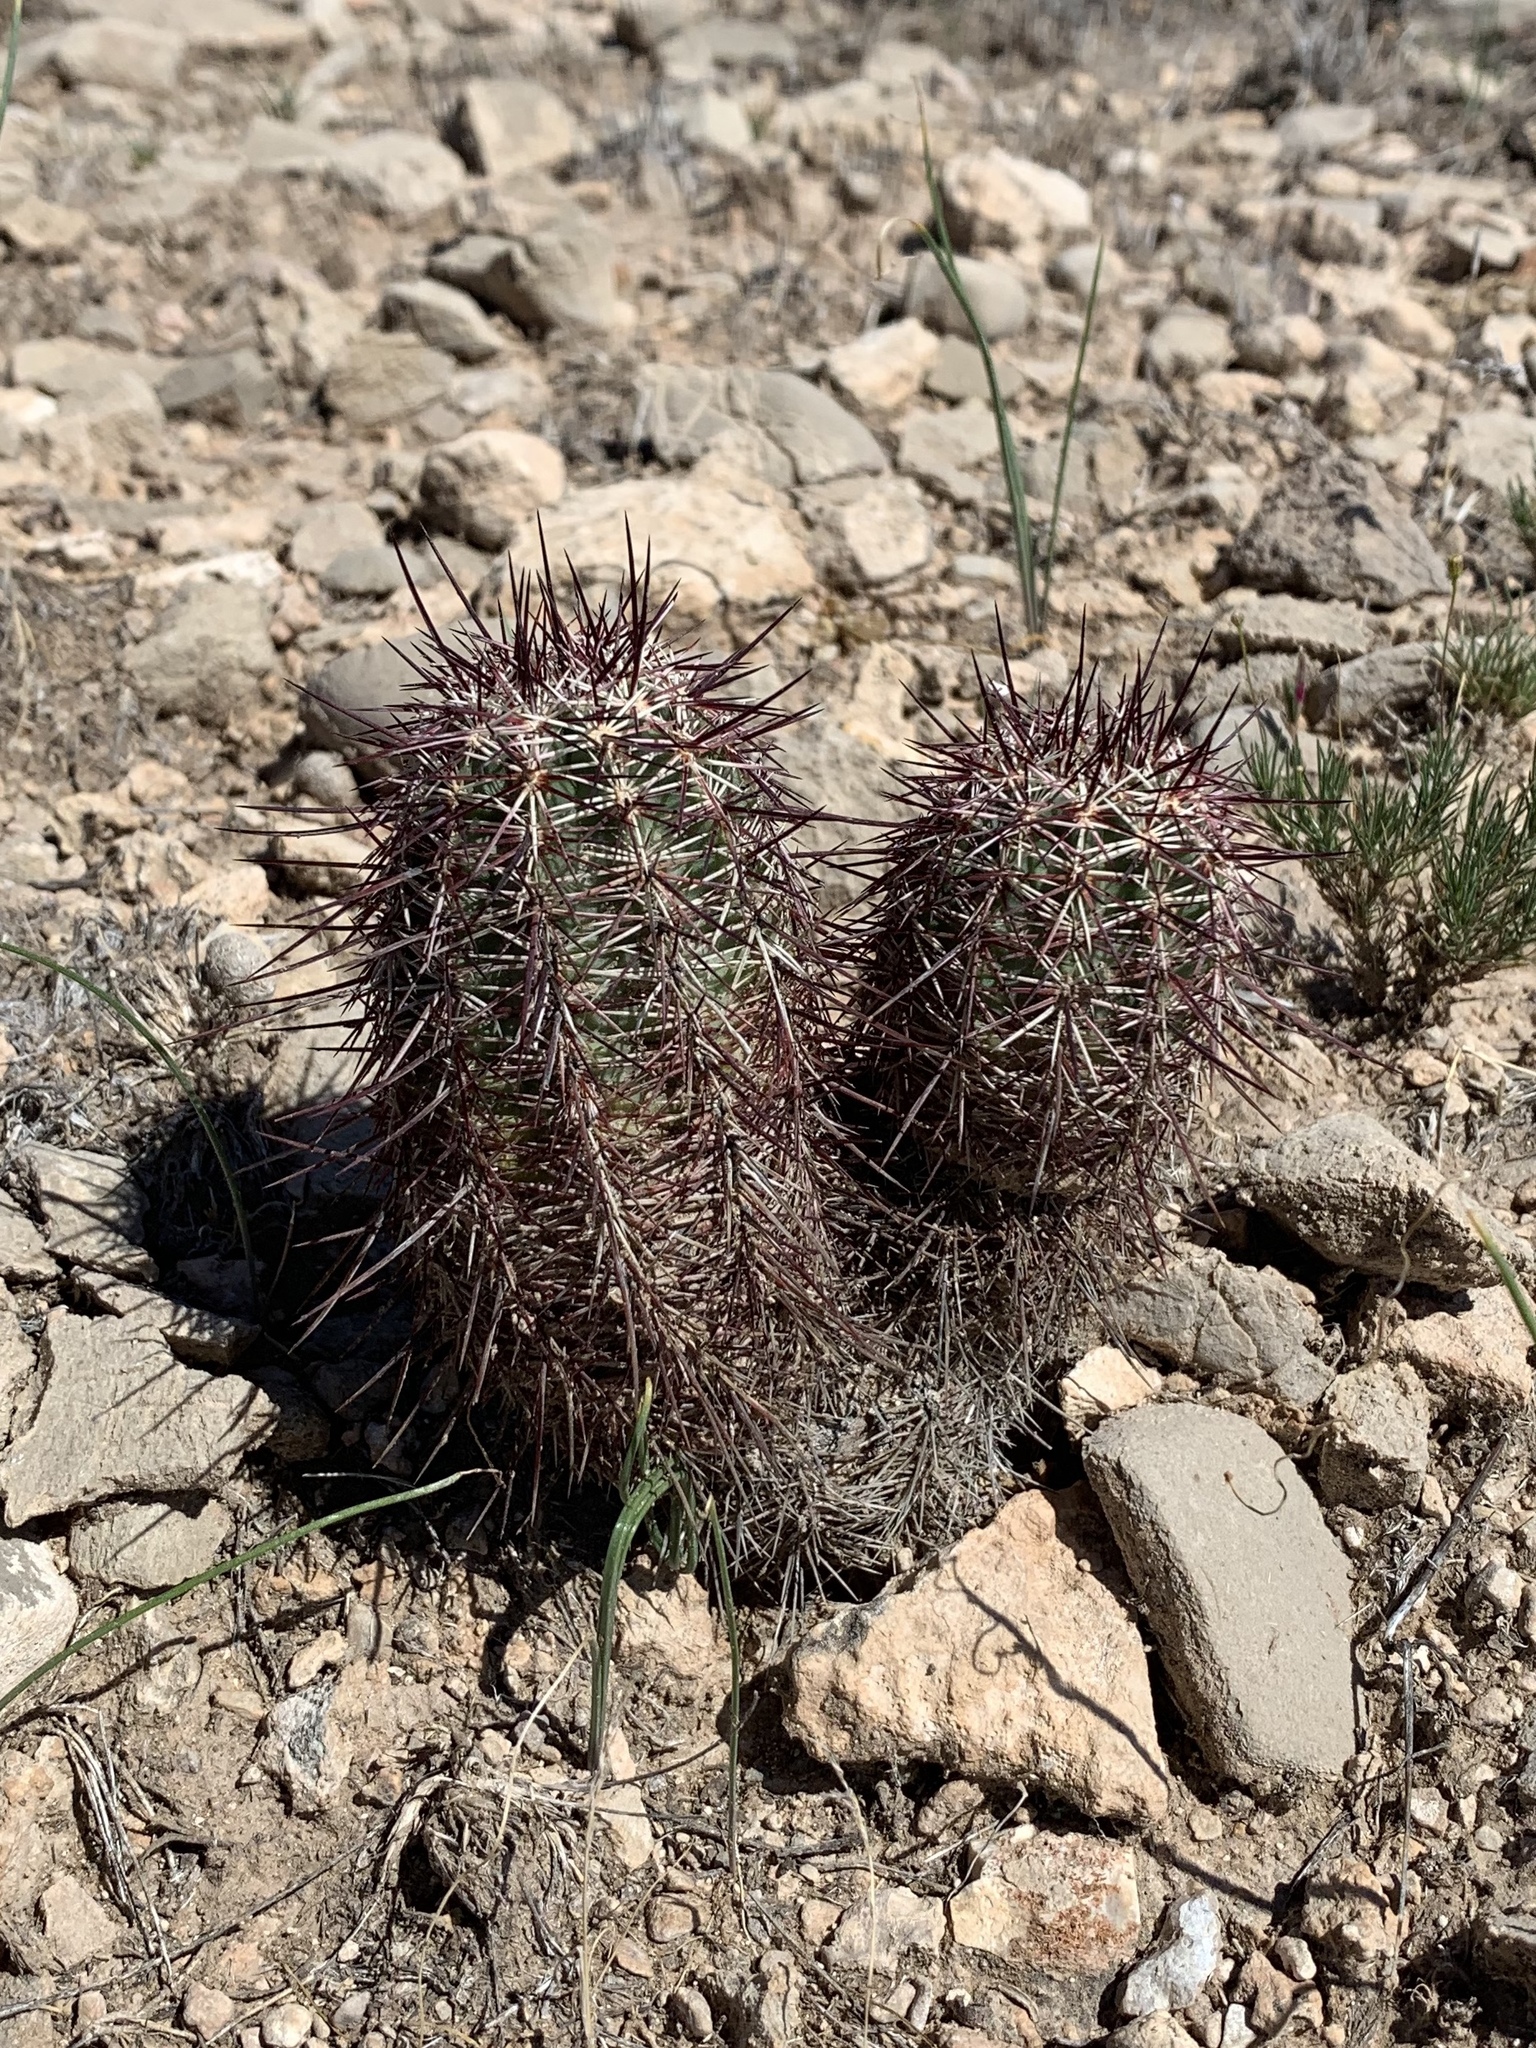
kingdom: Plantae
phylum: Tracheophyta
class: Magnoliopsida
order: Caryophyllales
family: Cactaceae
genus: Echinocereus
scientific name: Echinocereus viridiflorus
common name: Nylon hedgehog cactus
